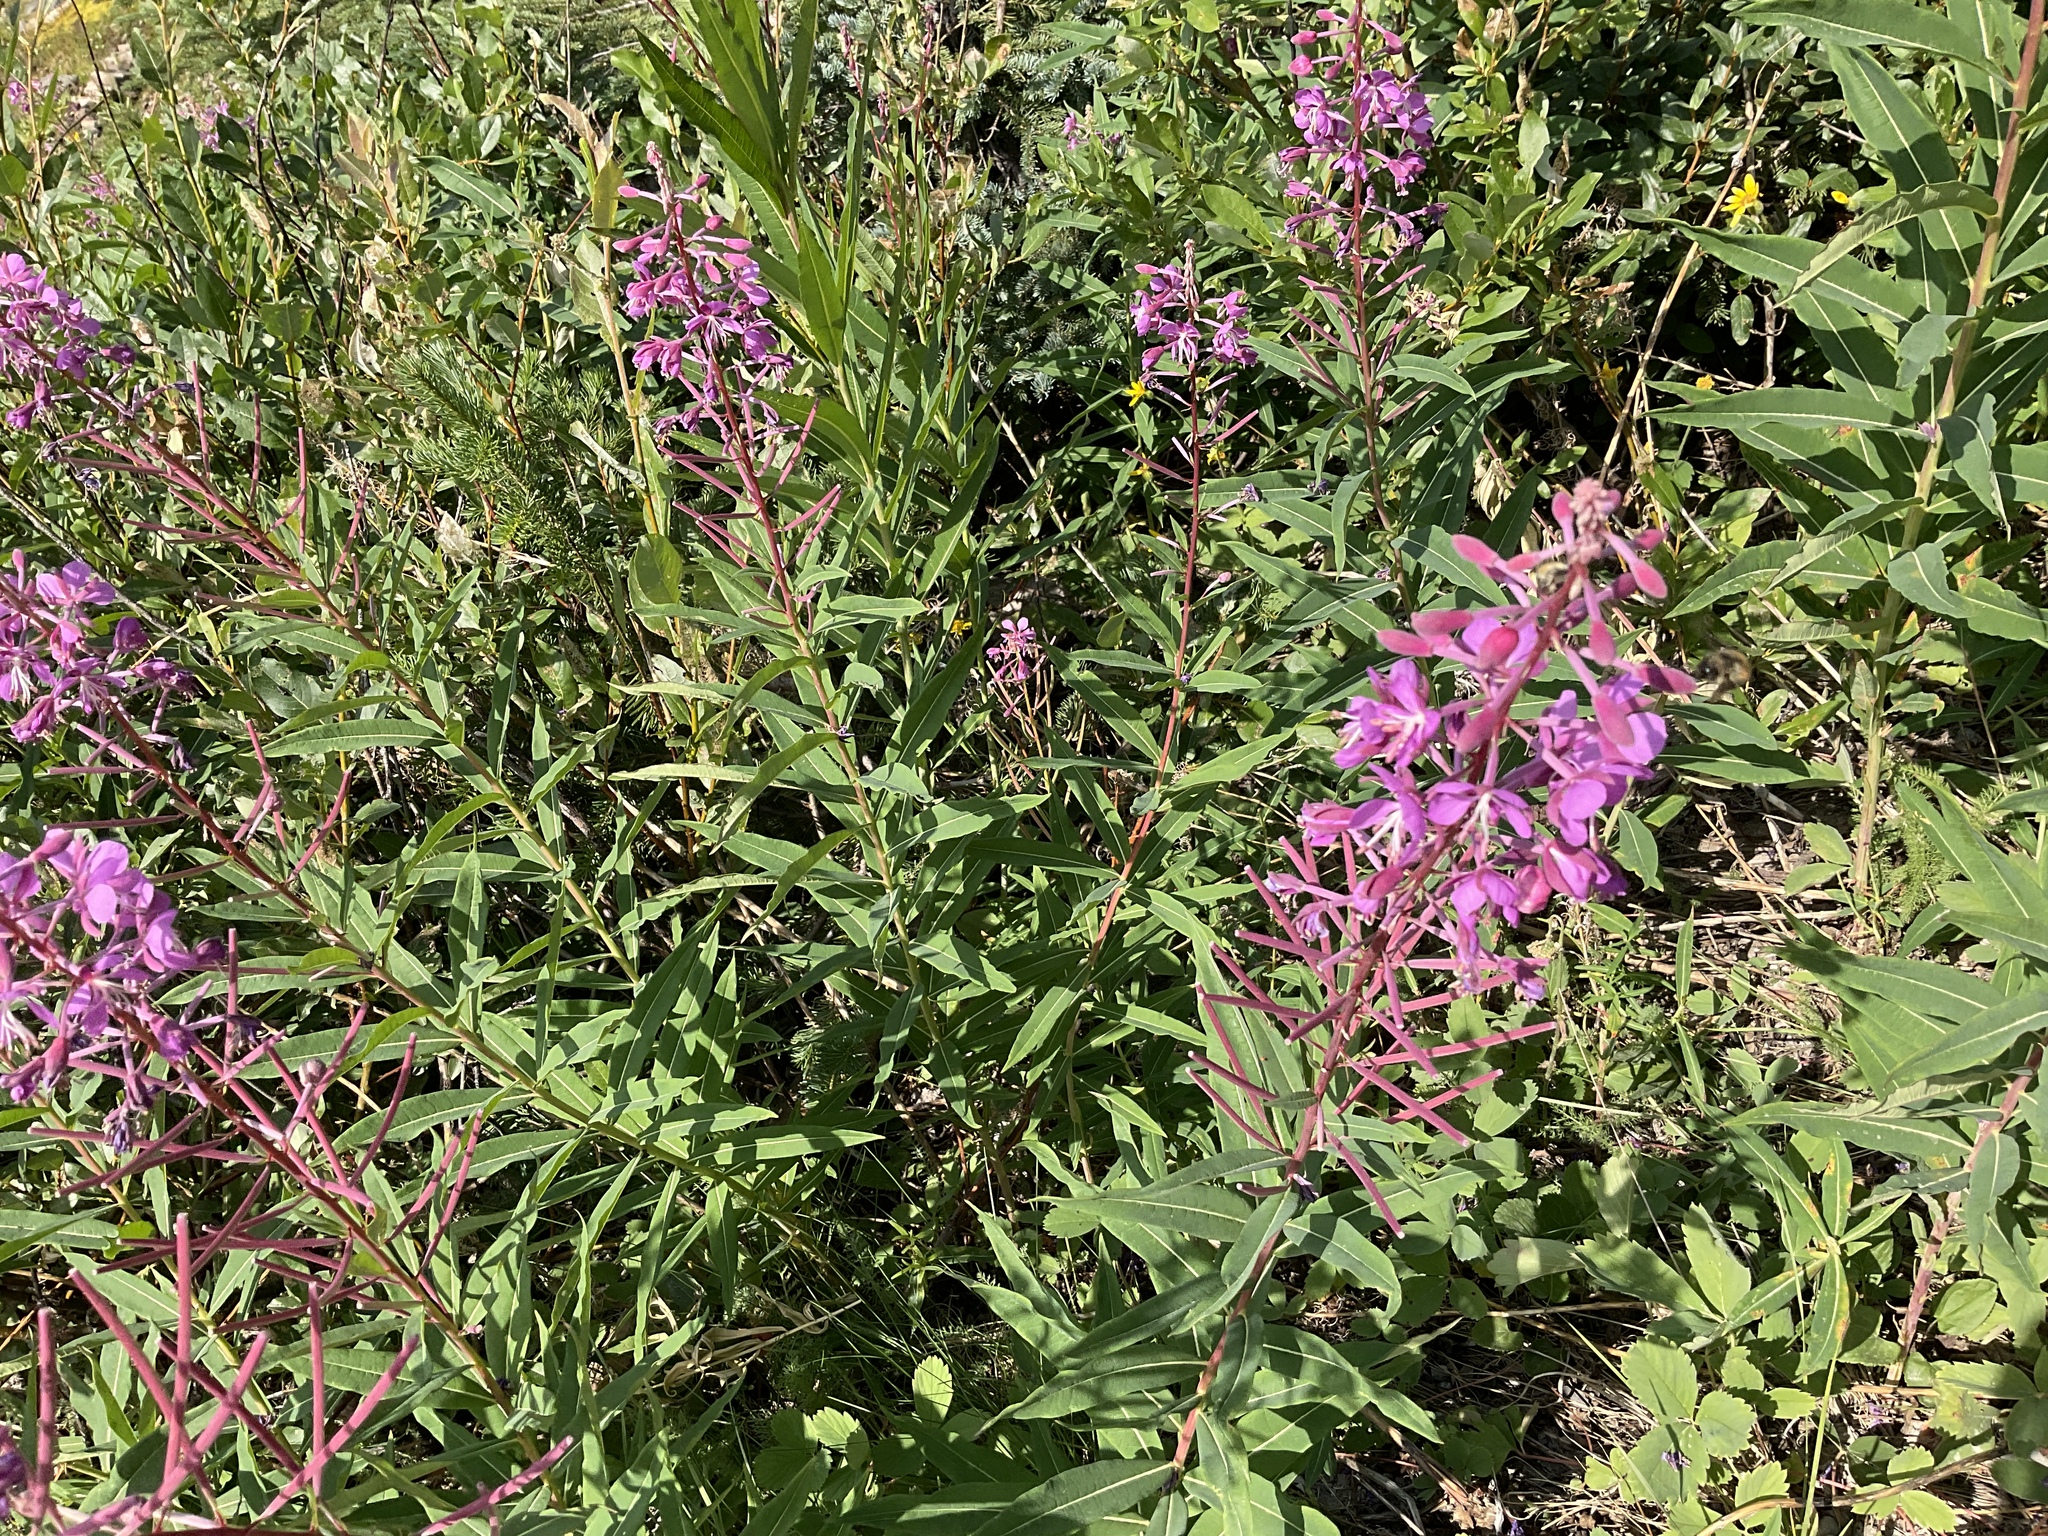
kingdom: Plantae
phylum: Tracheophyta
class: Magnoliopsida
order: Myrtales
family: Onagraceae
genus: Chamaenerion
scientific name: Chamaenerion angustifolium
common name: Fireweed
